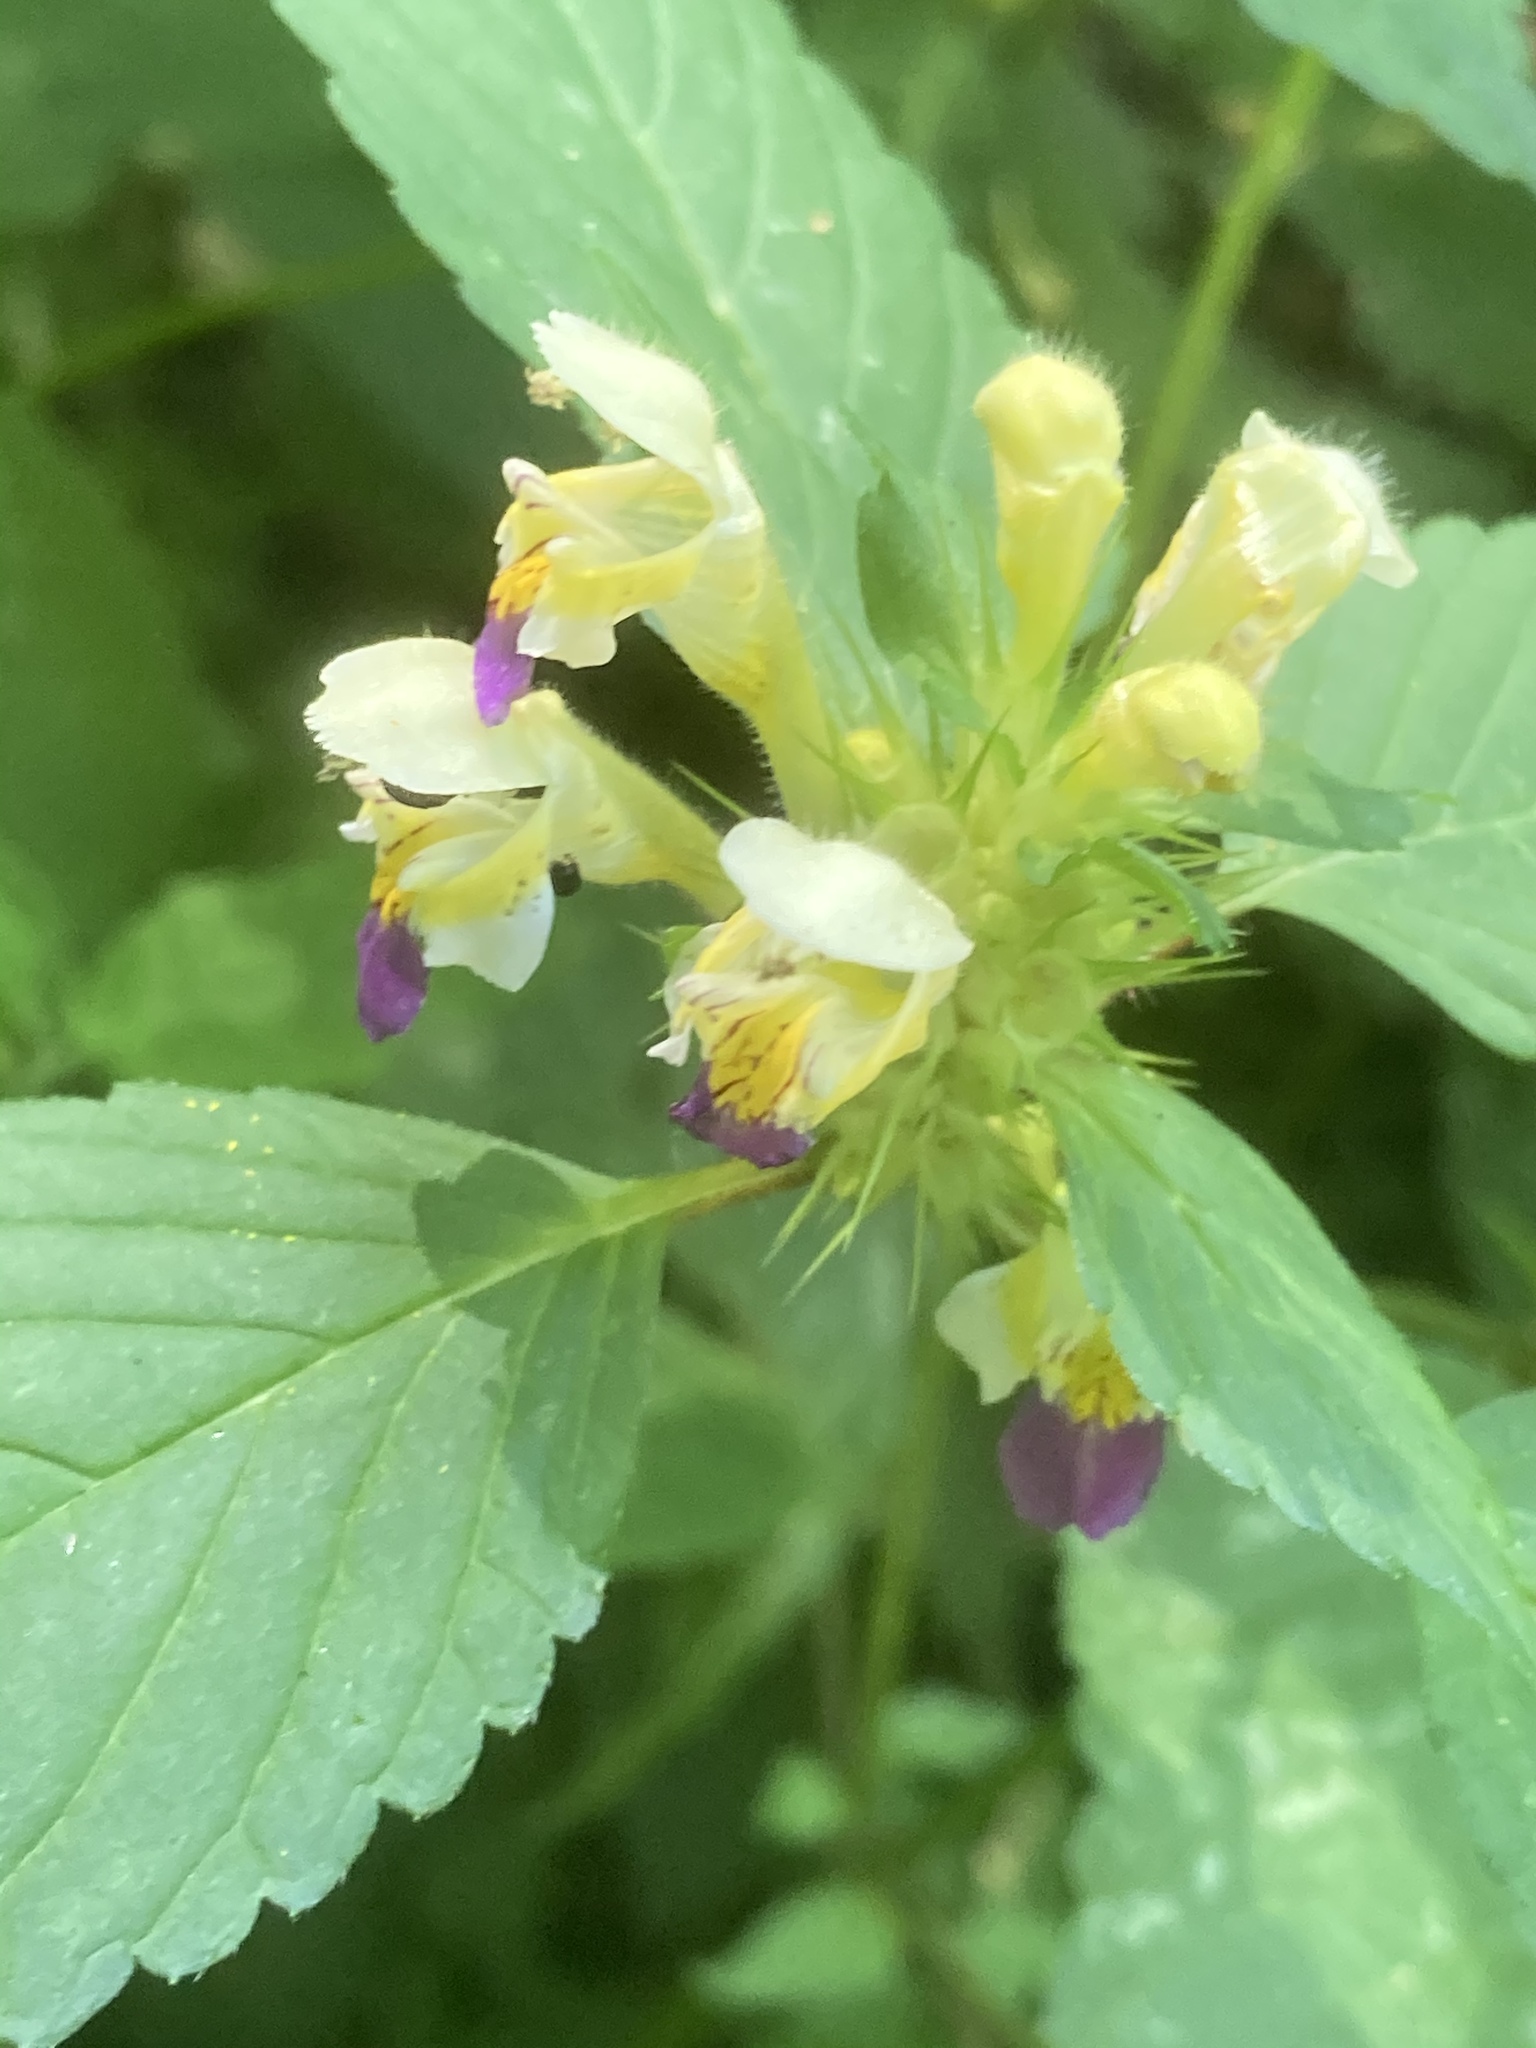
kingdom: Plantae
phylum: Tracheophyta
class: Magnoliopsida
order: Lamiales
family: Lamiaceae
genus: Galeopsis
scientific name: Galeopsis speciosa
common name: Large-flowered hemp-nettle
